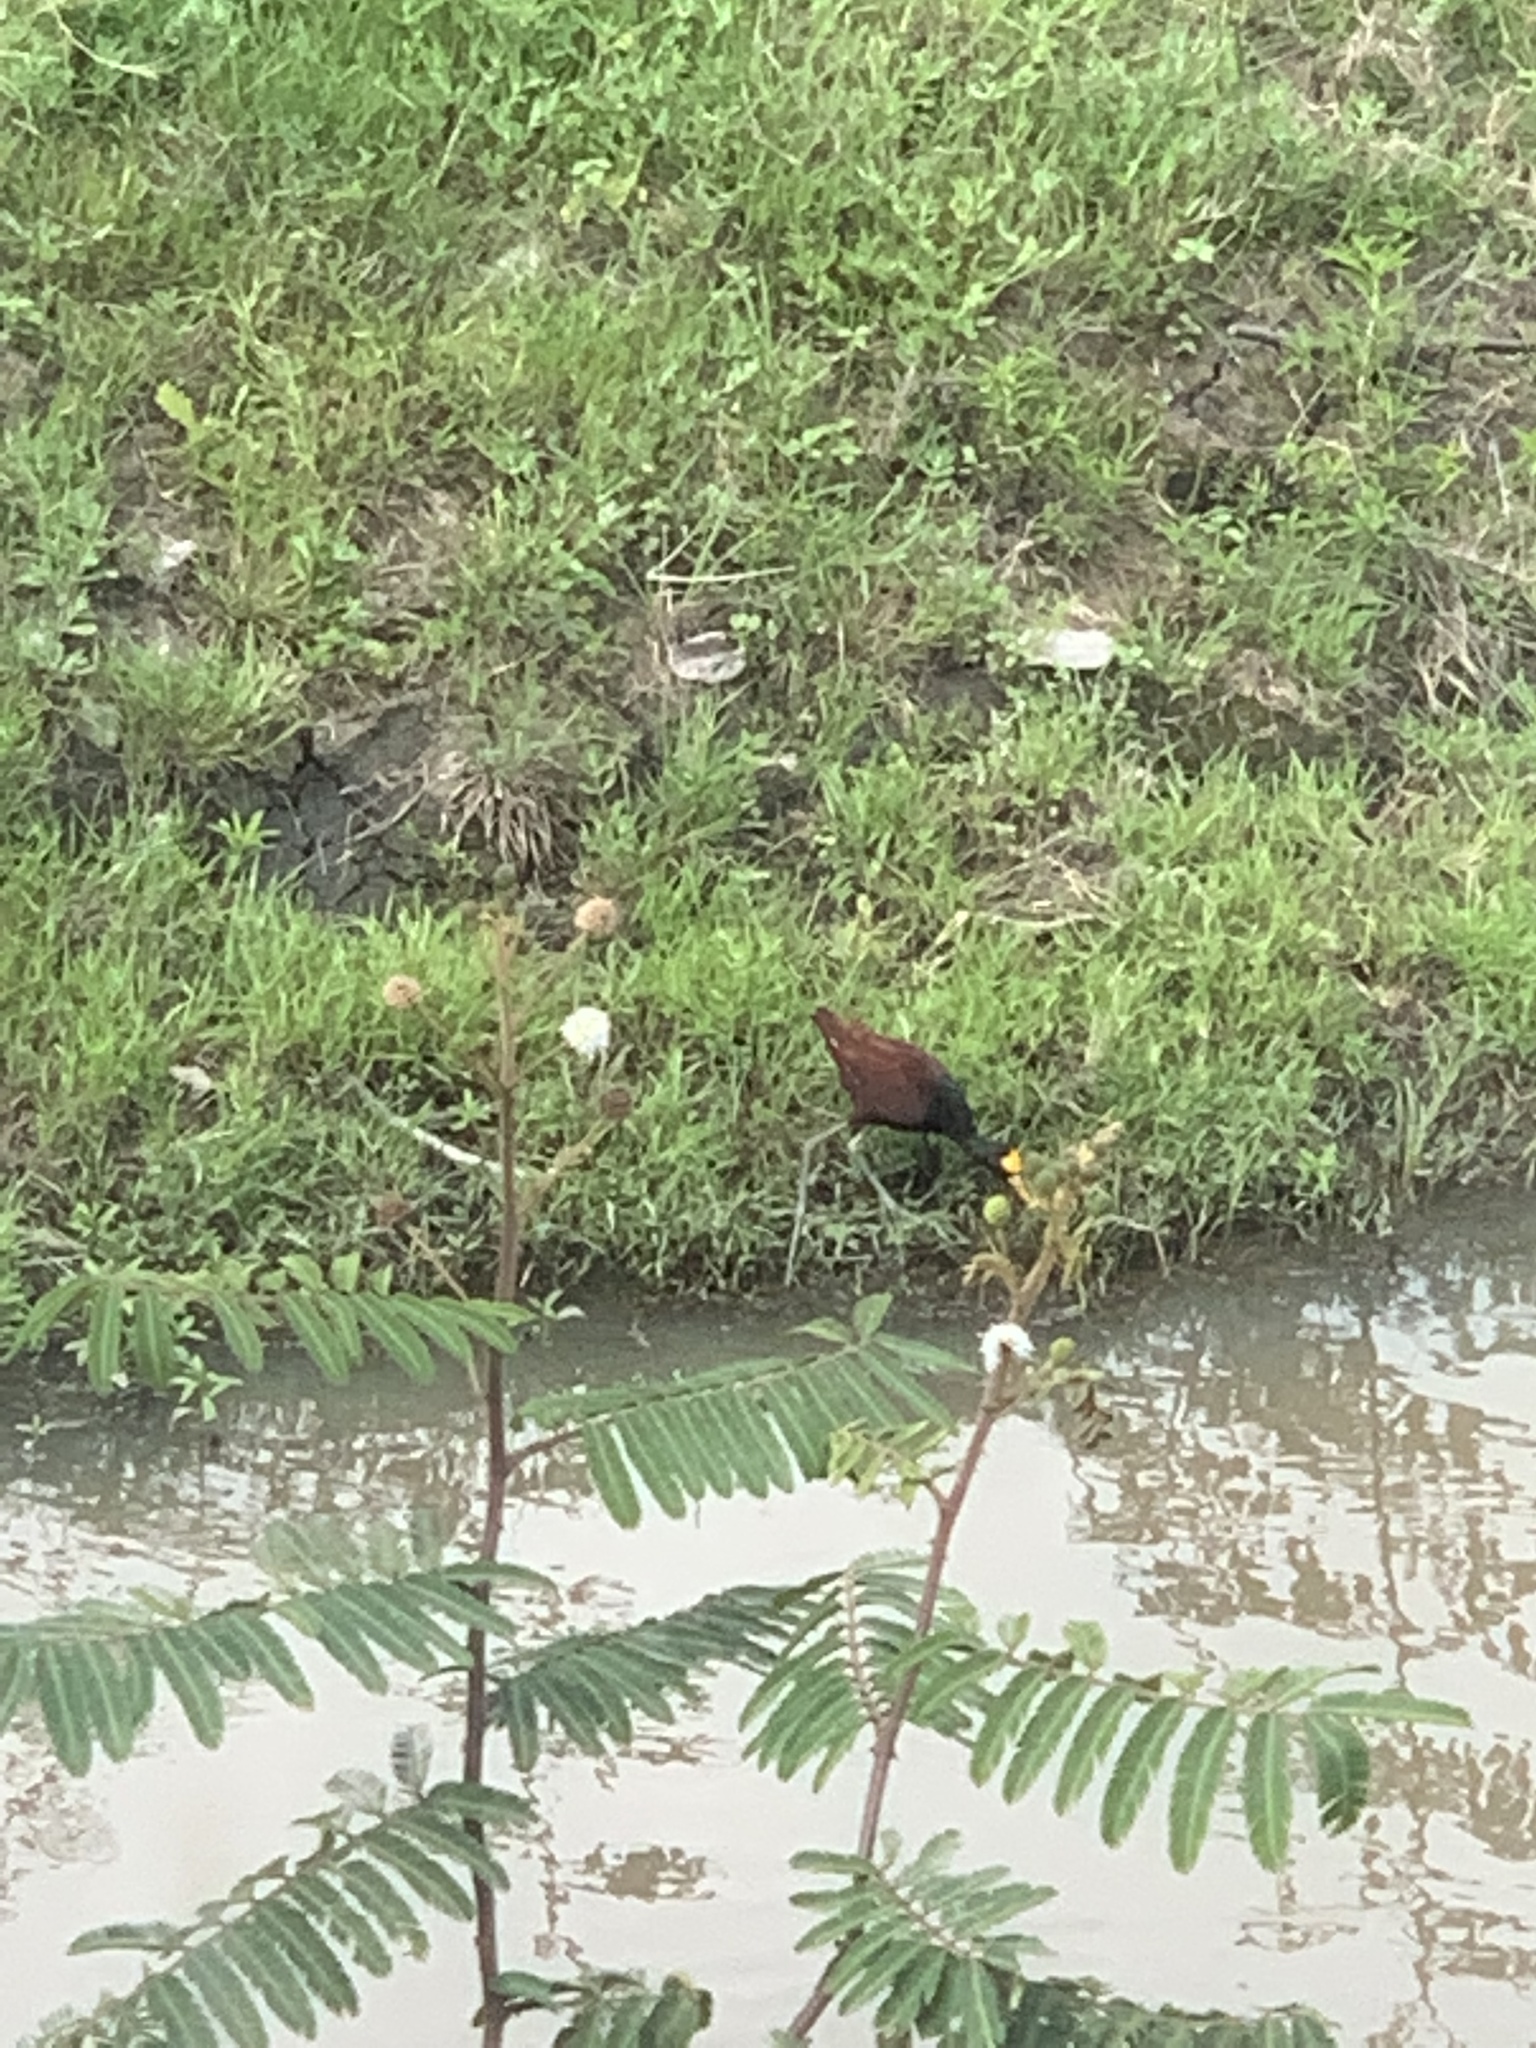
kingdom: Animalia
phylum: Chordata
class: Aves
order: Charadriiformes
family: Jacanidae
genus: Jacana
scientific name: Jacana spinosa
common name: Northern jacana
